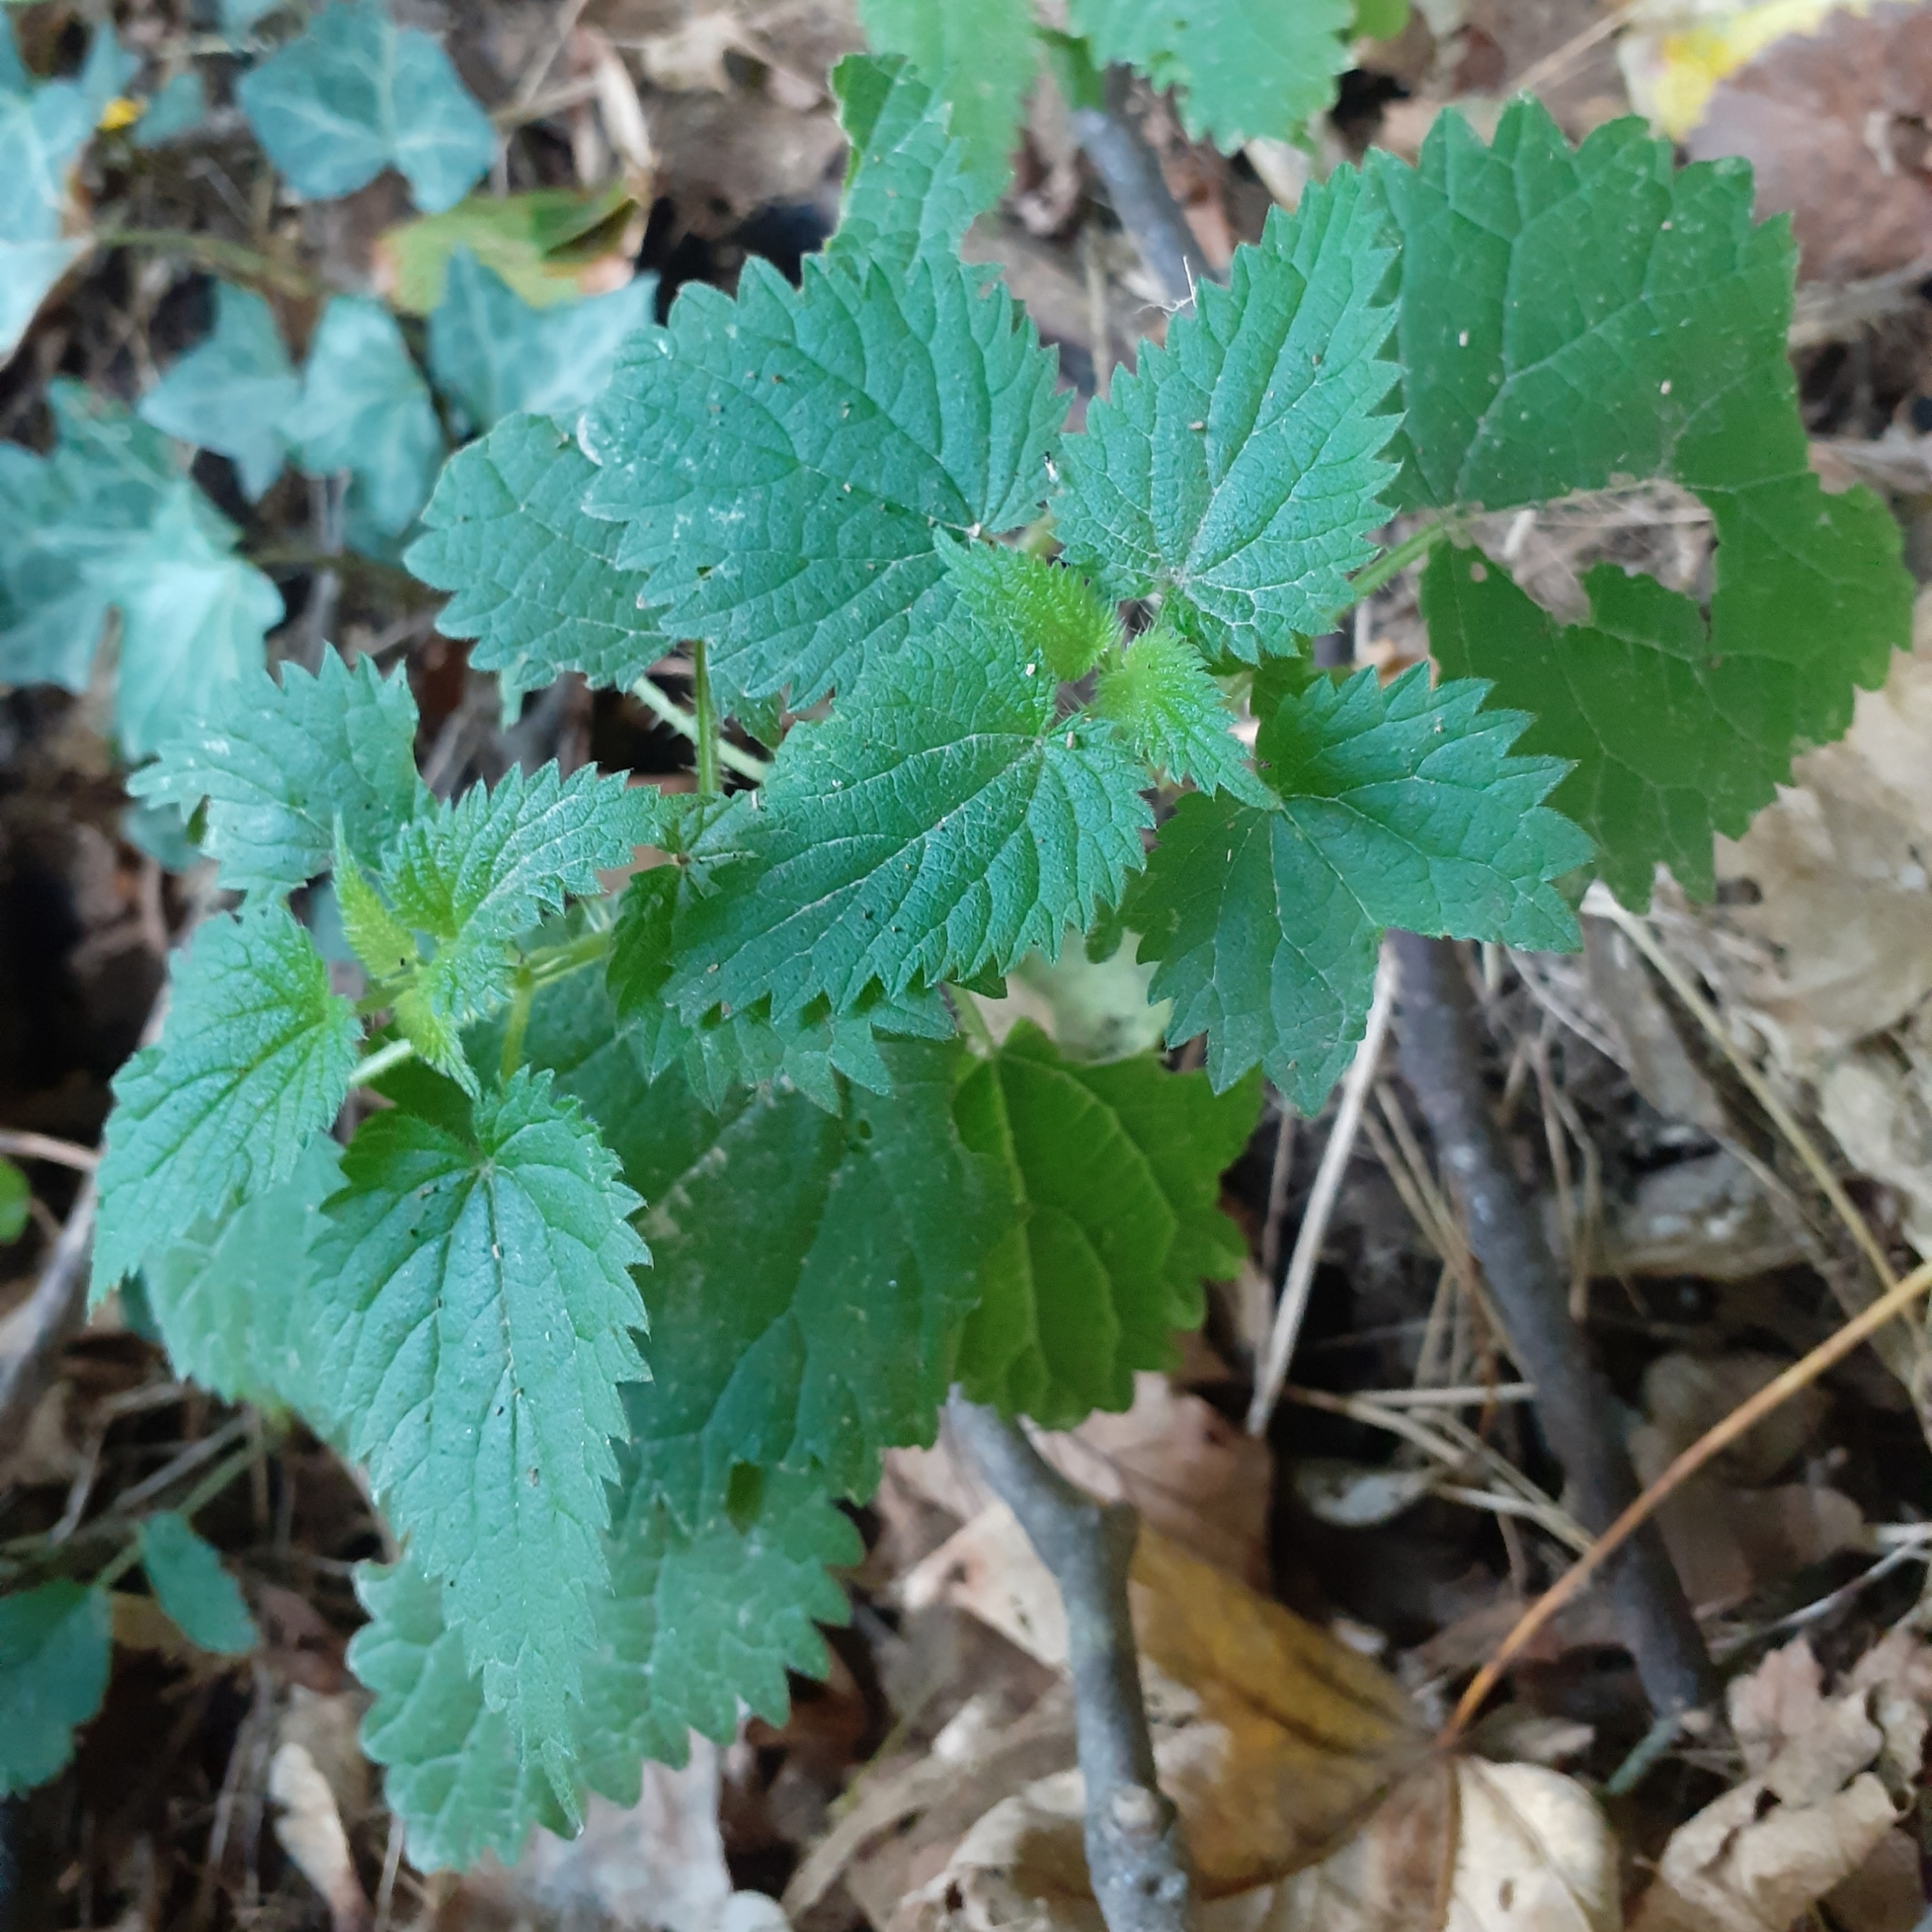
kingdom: Plantae
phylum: Tracheophyta
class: Magnoliopsida
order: Rosales
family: Urticaceae
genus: Urtica
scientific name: Urtica dioica
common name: Common nettle
